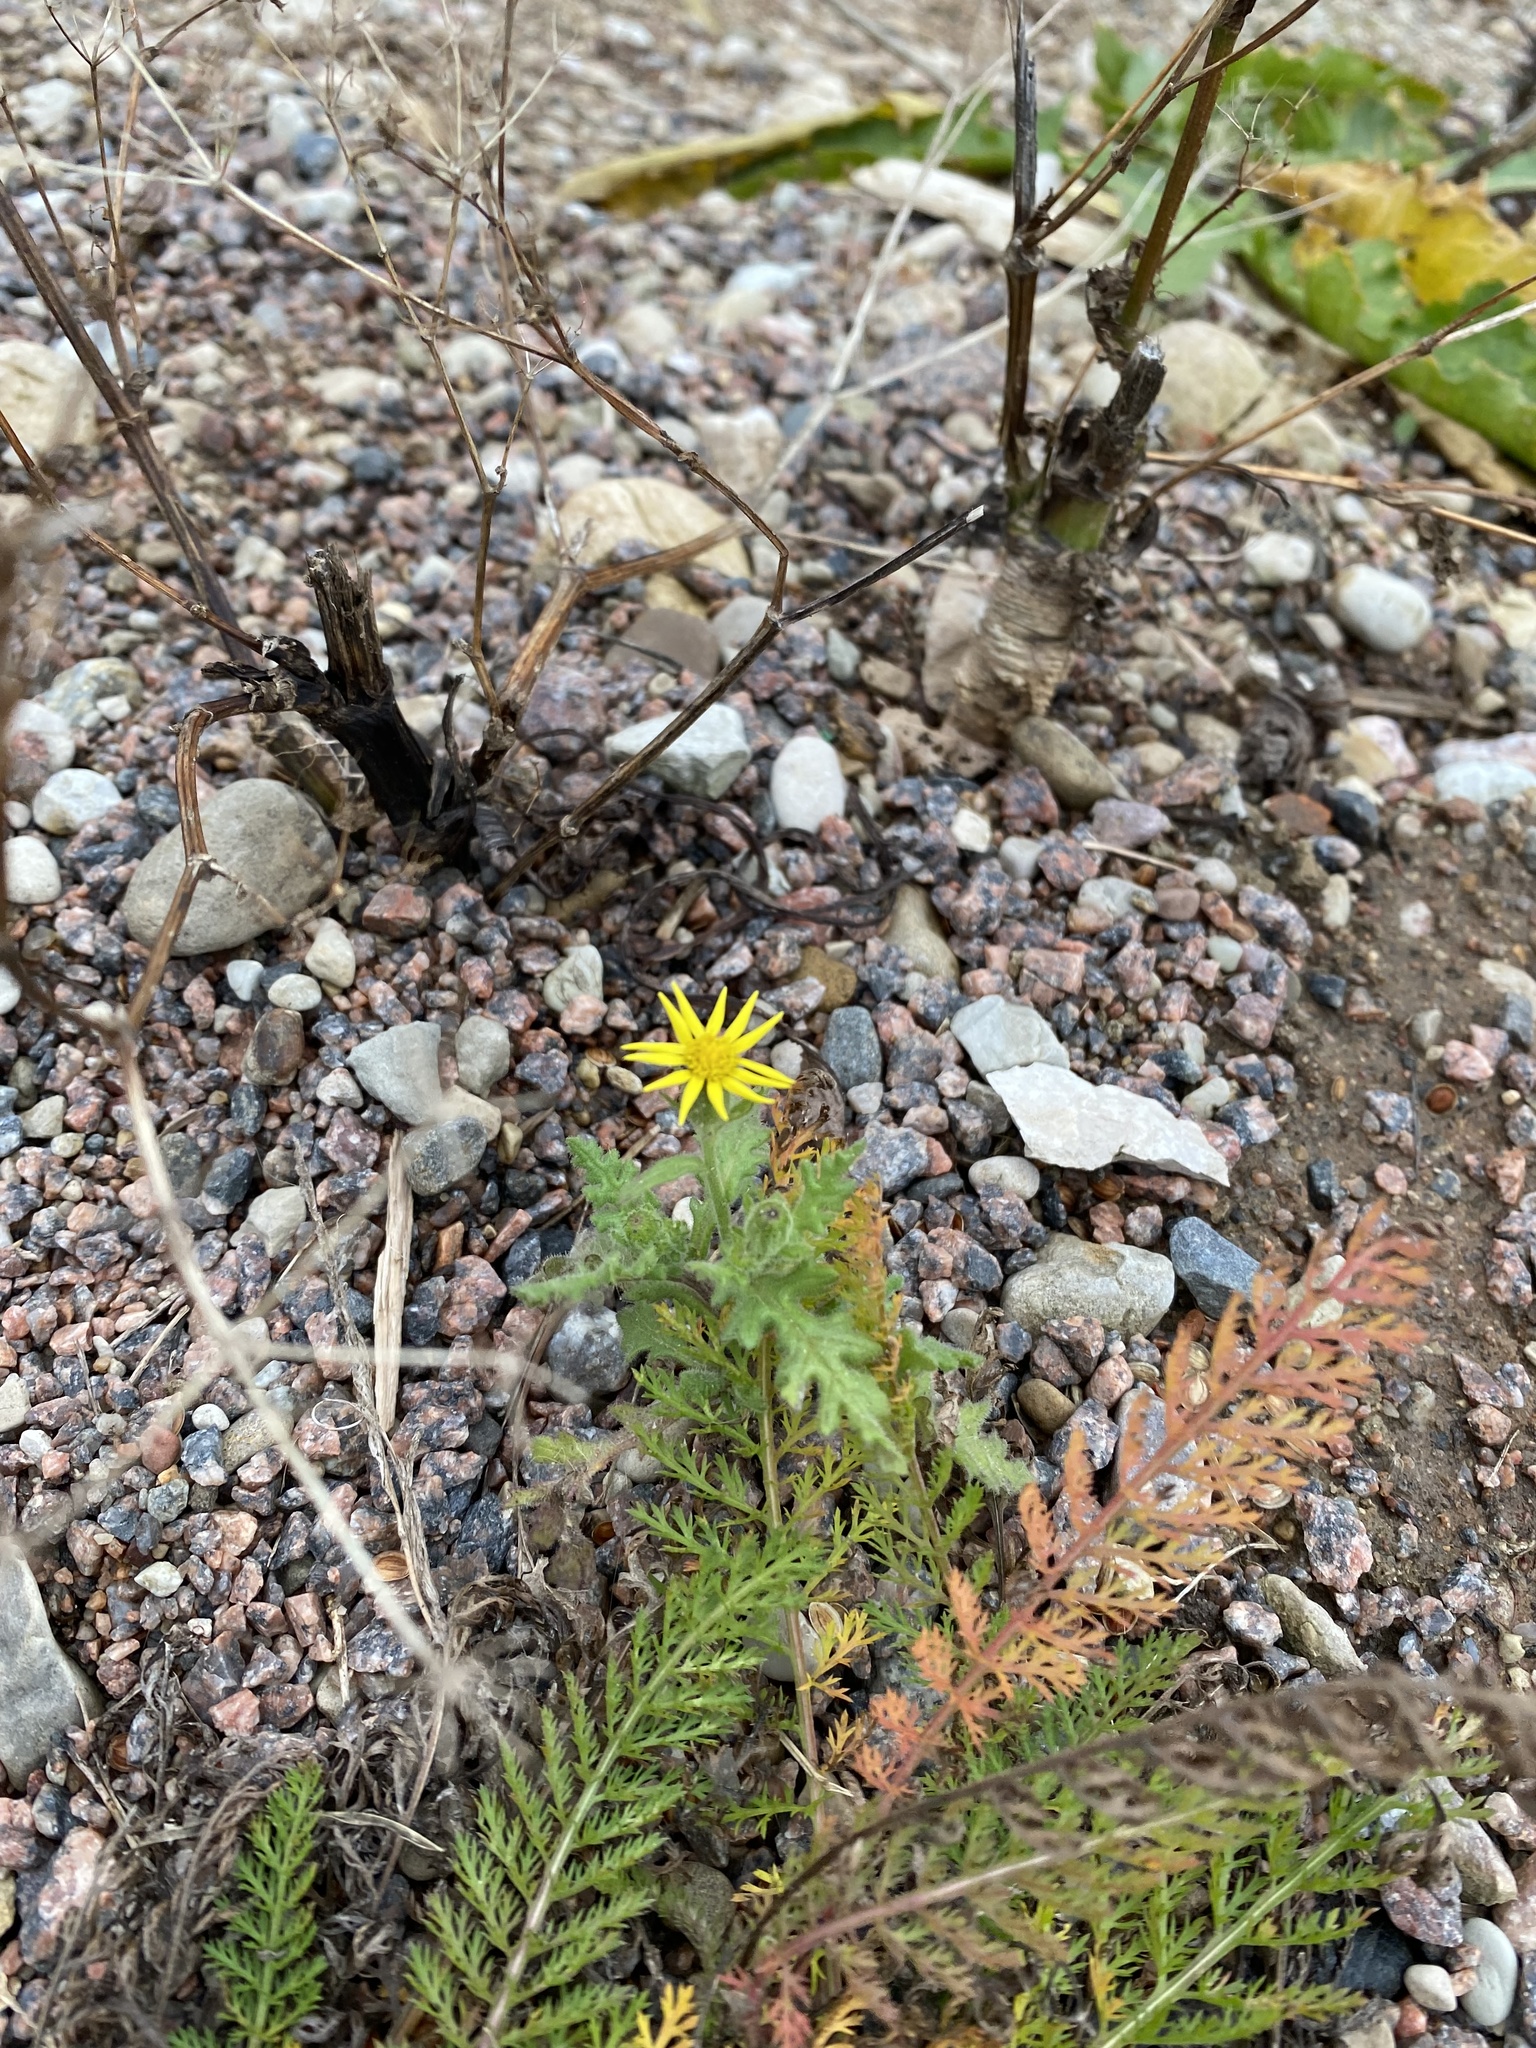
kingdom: Plantae
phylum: Tracheophyta
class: Magnoliopsida
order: Asterales
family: Asteraceae
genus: Senecio
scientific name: Senecio viscosus
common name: Sticky groundsel
